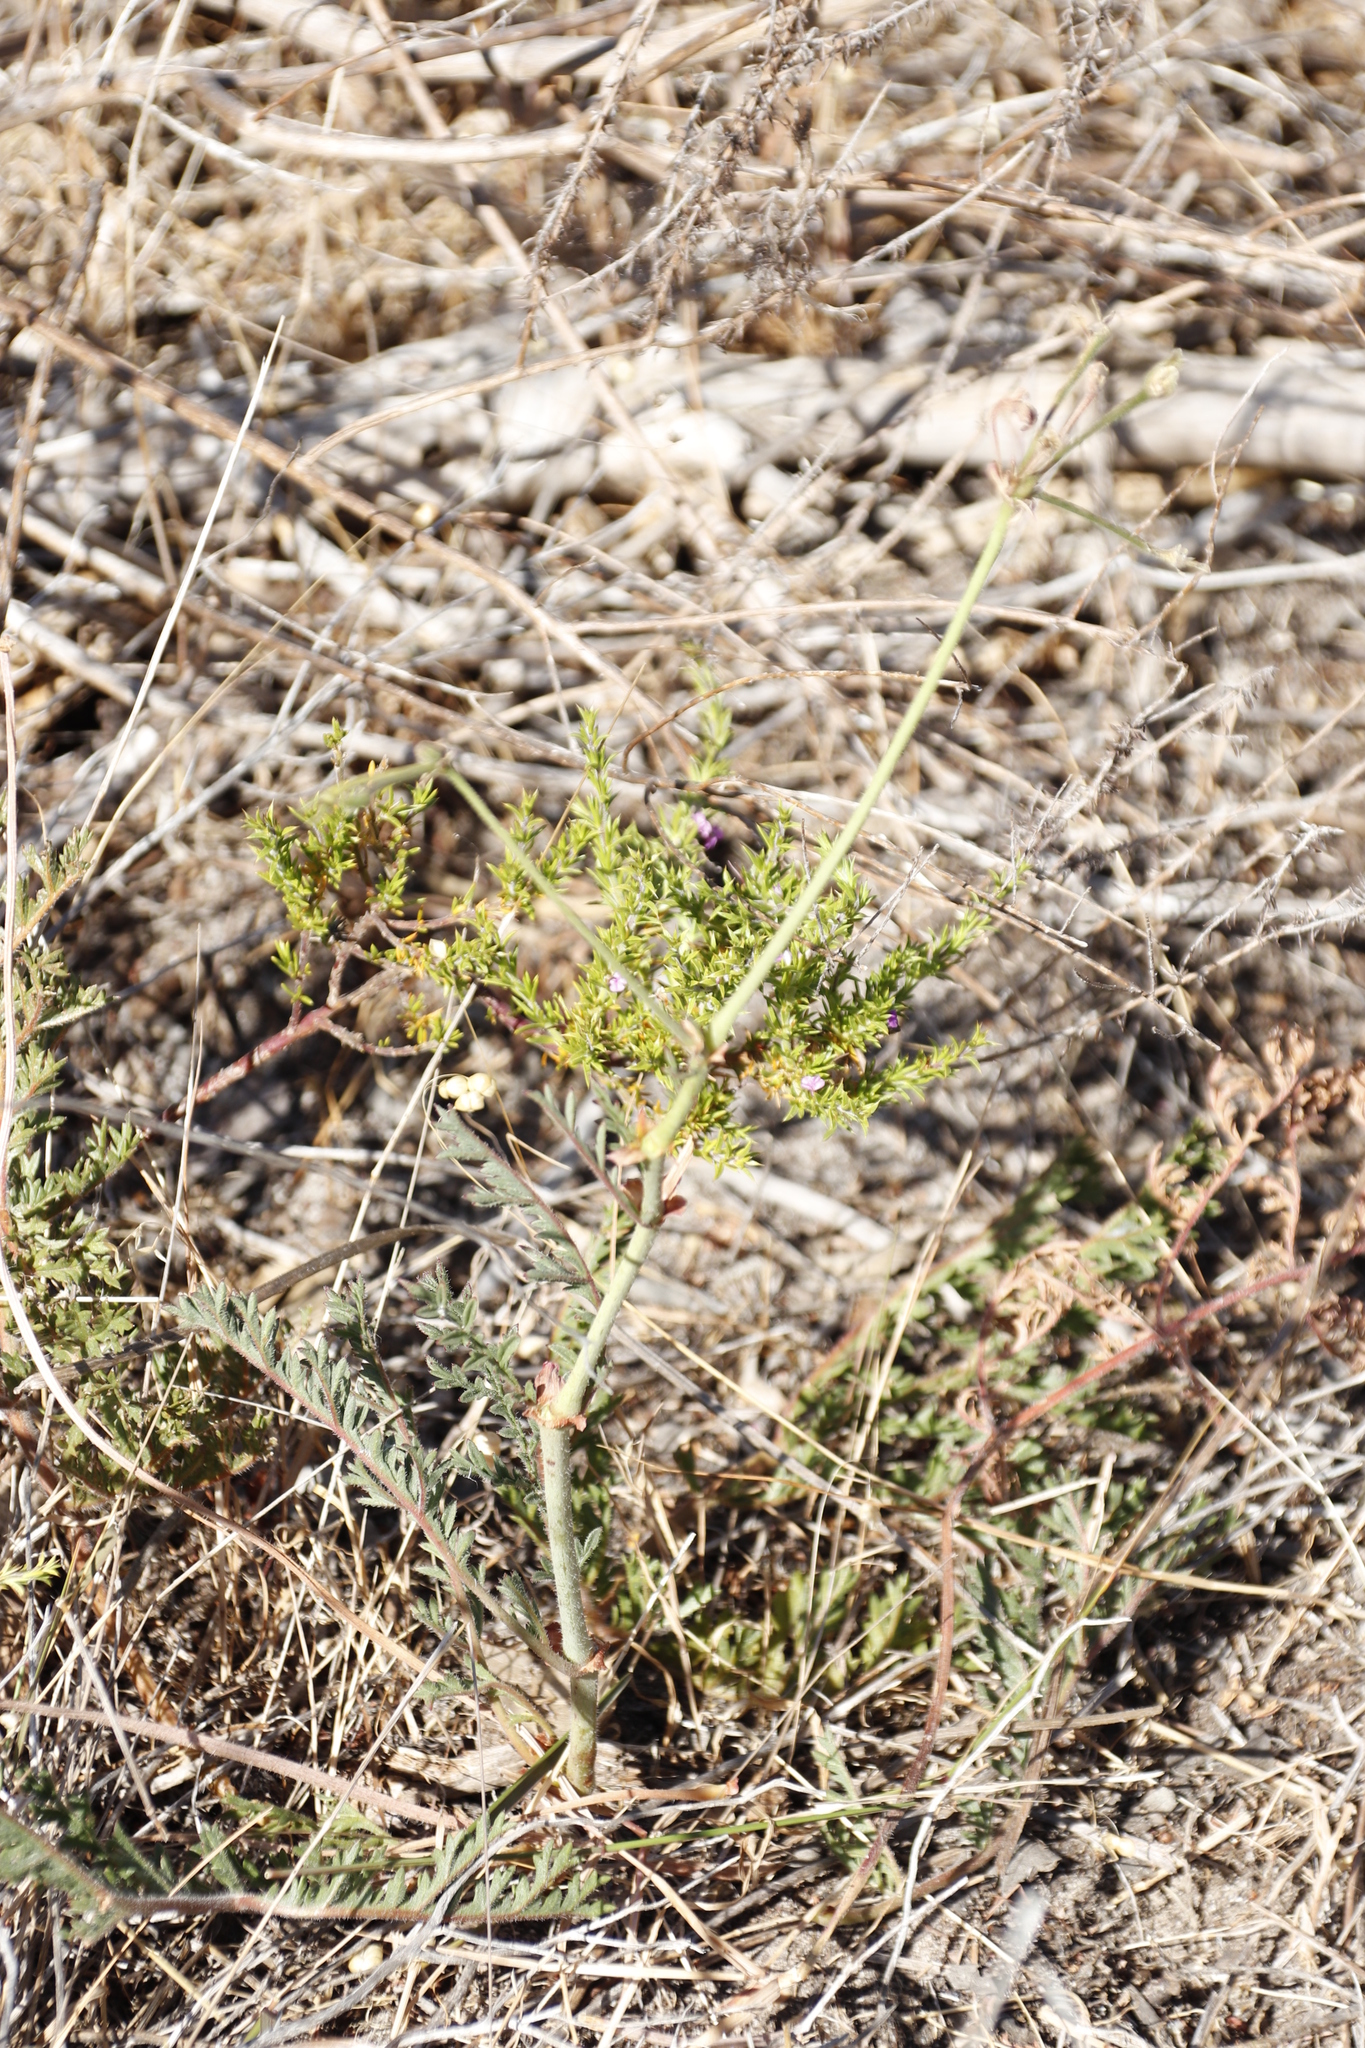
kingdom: Plantae
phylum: Tracheophyta
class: Magnoliopsida
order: Geraniales
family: Geraniaceae
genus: Pelargonium
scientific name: Pelargonium triste
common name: Night-scent pelargonium
